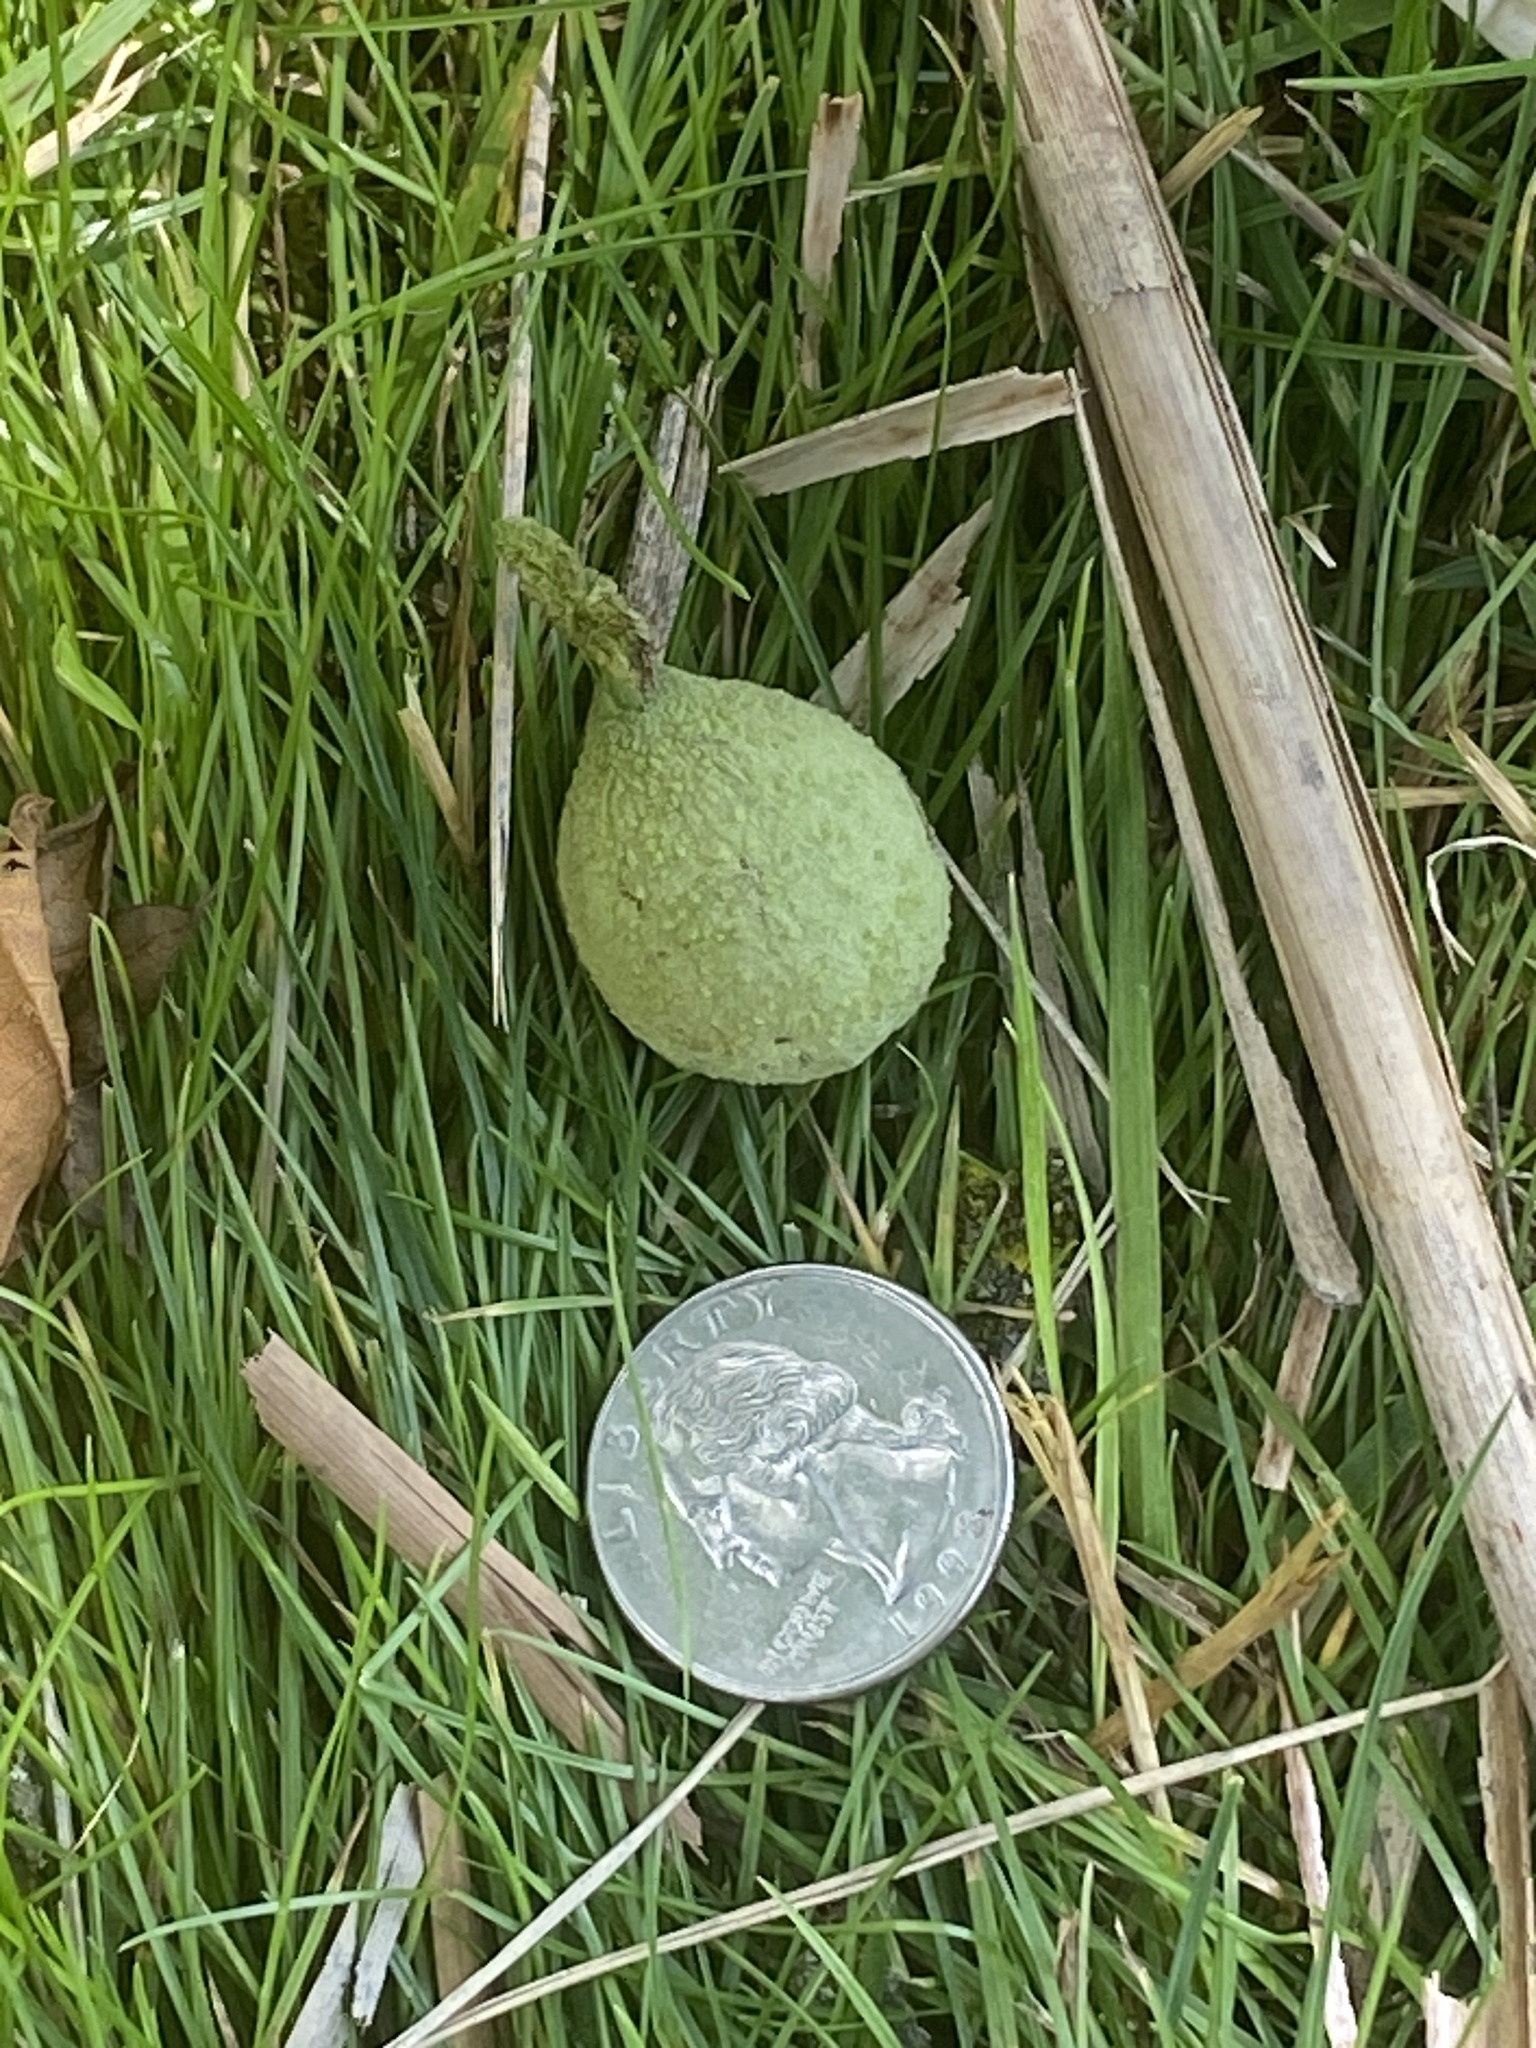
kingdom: Plantae
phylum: Tracheophyta
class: Magnoliopsida
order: Fagales
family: Juglandaceae
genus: Juglans
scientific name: Juglans nigra
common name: Black walnut
